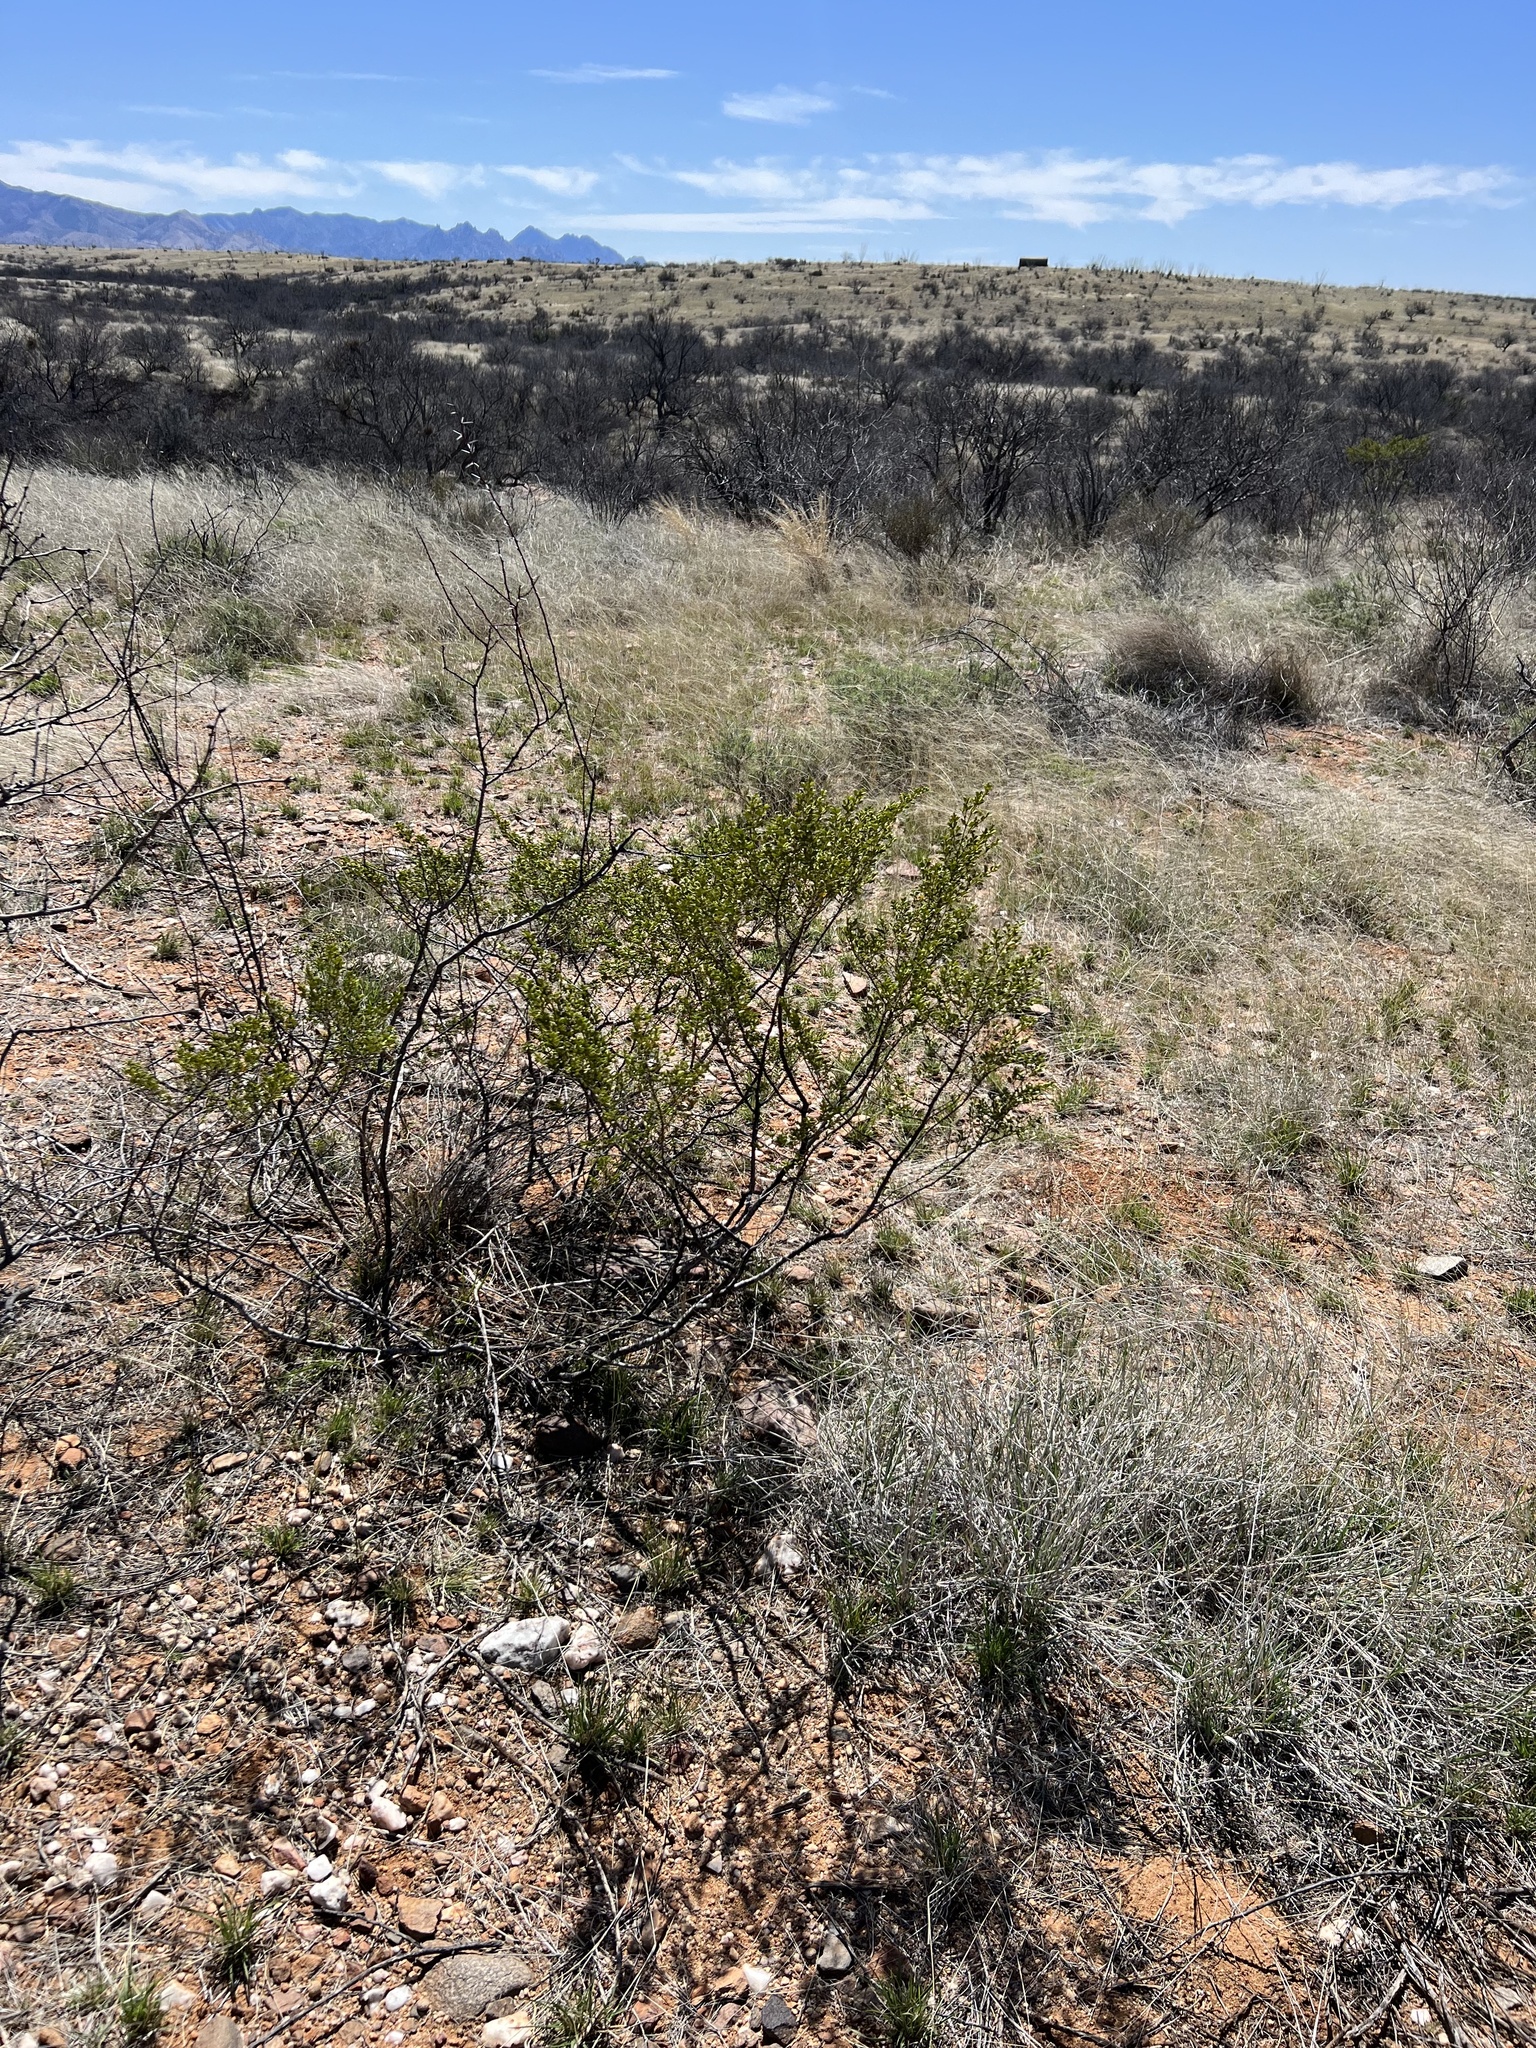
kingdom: Plantae
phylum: Tracheophyta
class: Magnoliopsida
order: Zygophyllales
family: Zygophyllaceae
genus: Larrea
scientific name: Larrea tridentata
